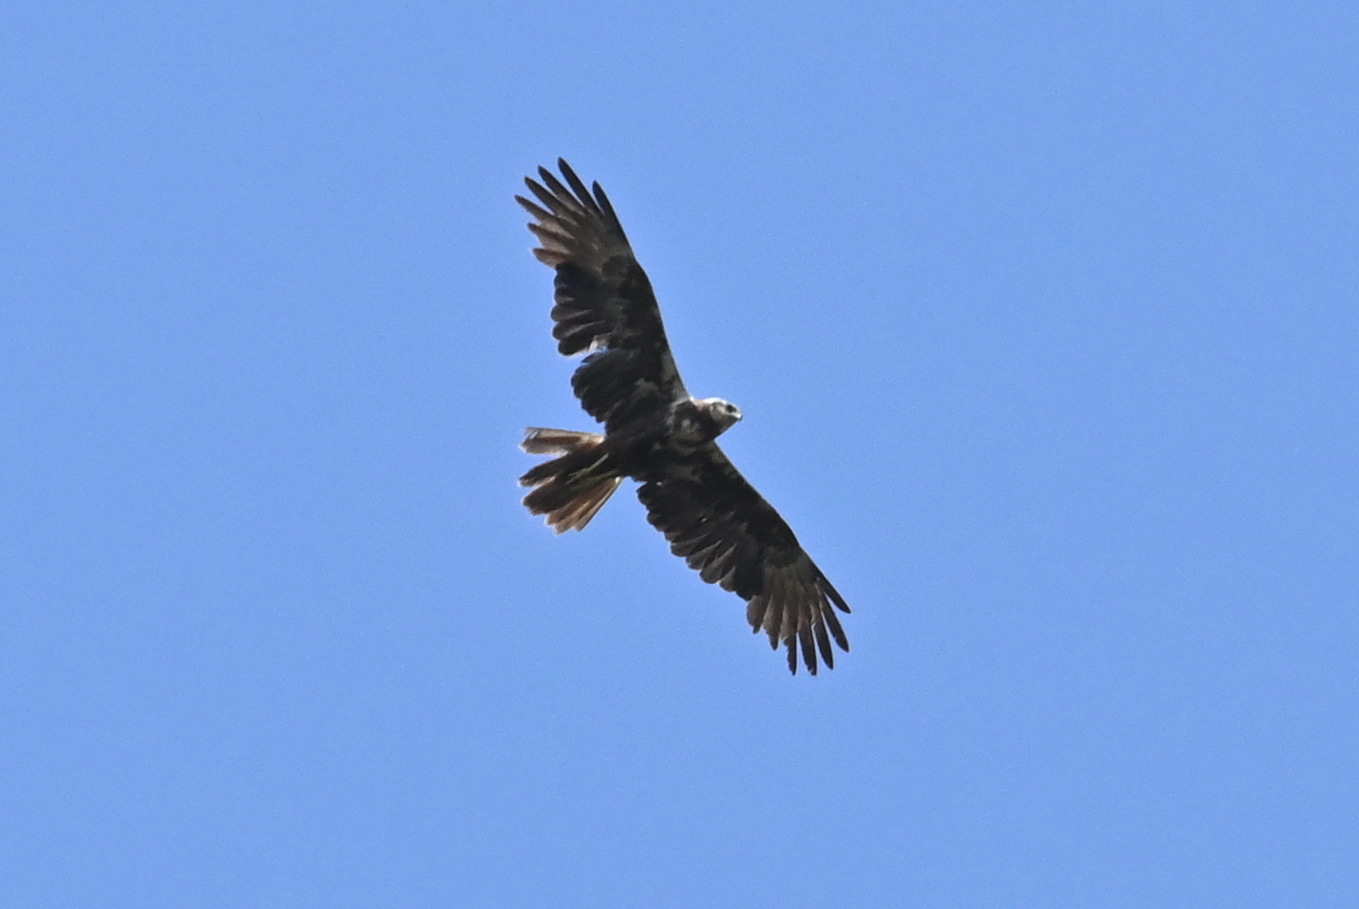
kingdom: Animalia
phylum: Chordata
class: Aves
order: Accipitriformes
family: Accipitridae
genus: Circus
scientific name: Circus aeruginosus
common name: Western marsh harrier
